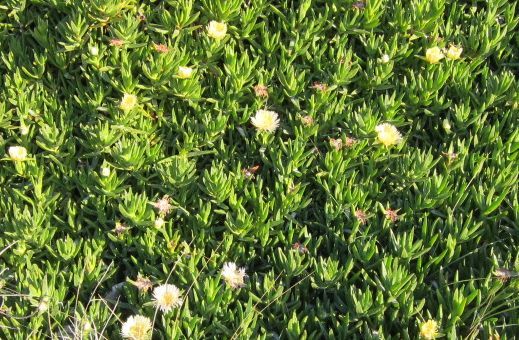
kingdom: Plantae
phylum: Tracheophyta
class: Magnoliopsida
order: Caryophyllales
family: Aizoaceae
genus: Carpobrotus
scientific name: Carpobrotus edulis
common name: Hottentot-fig
